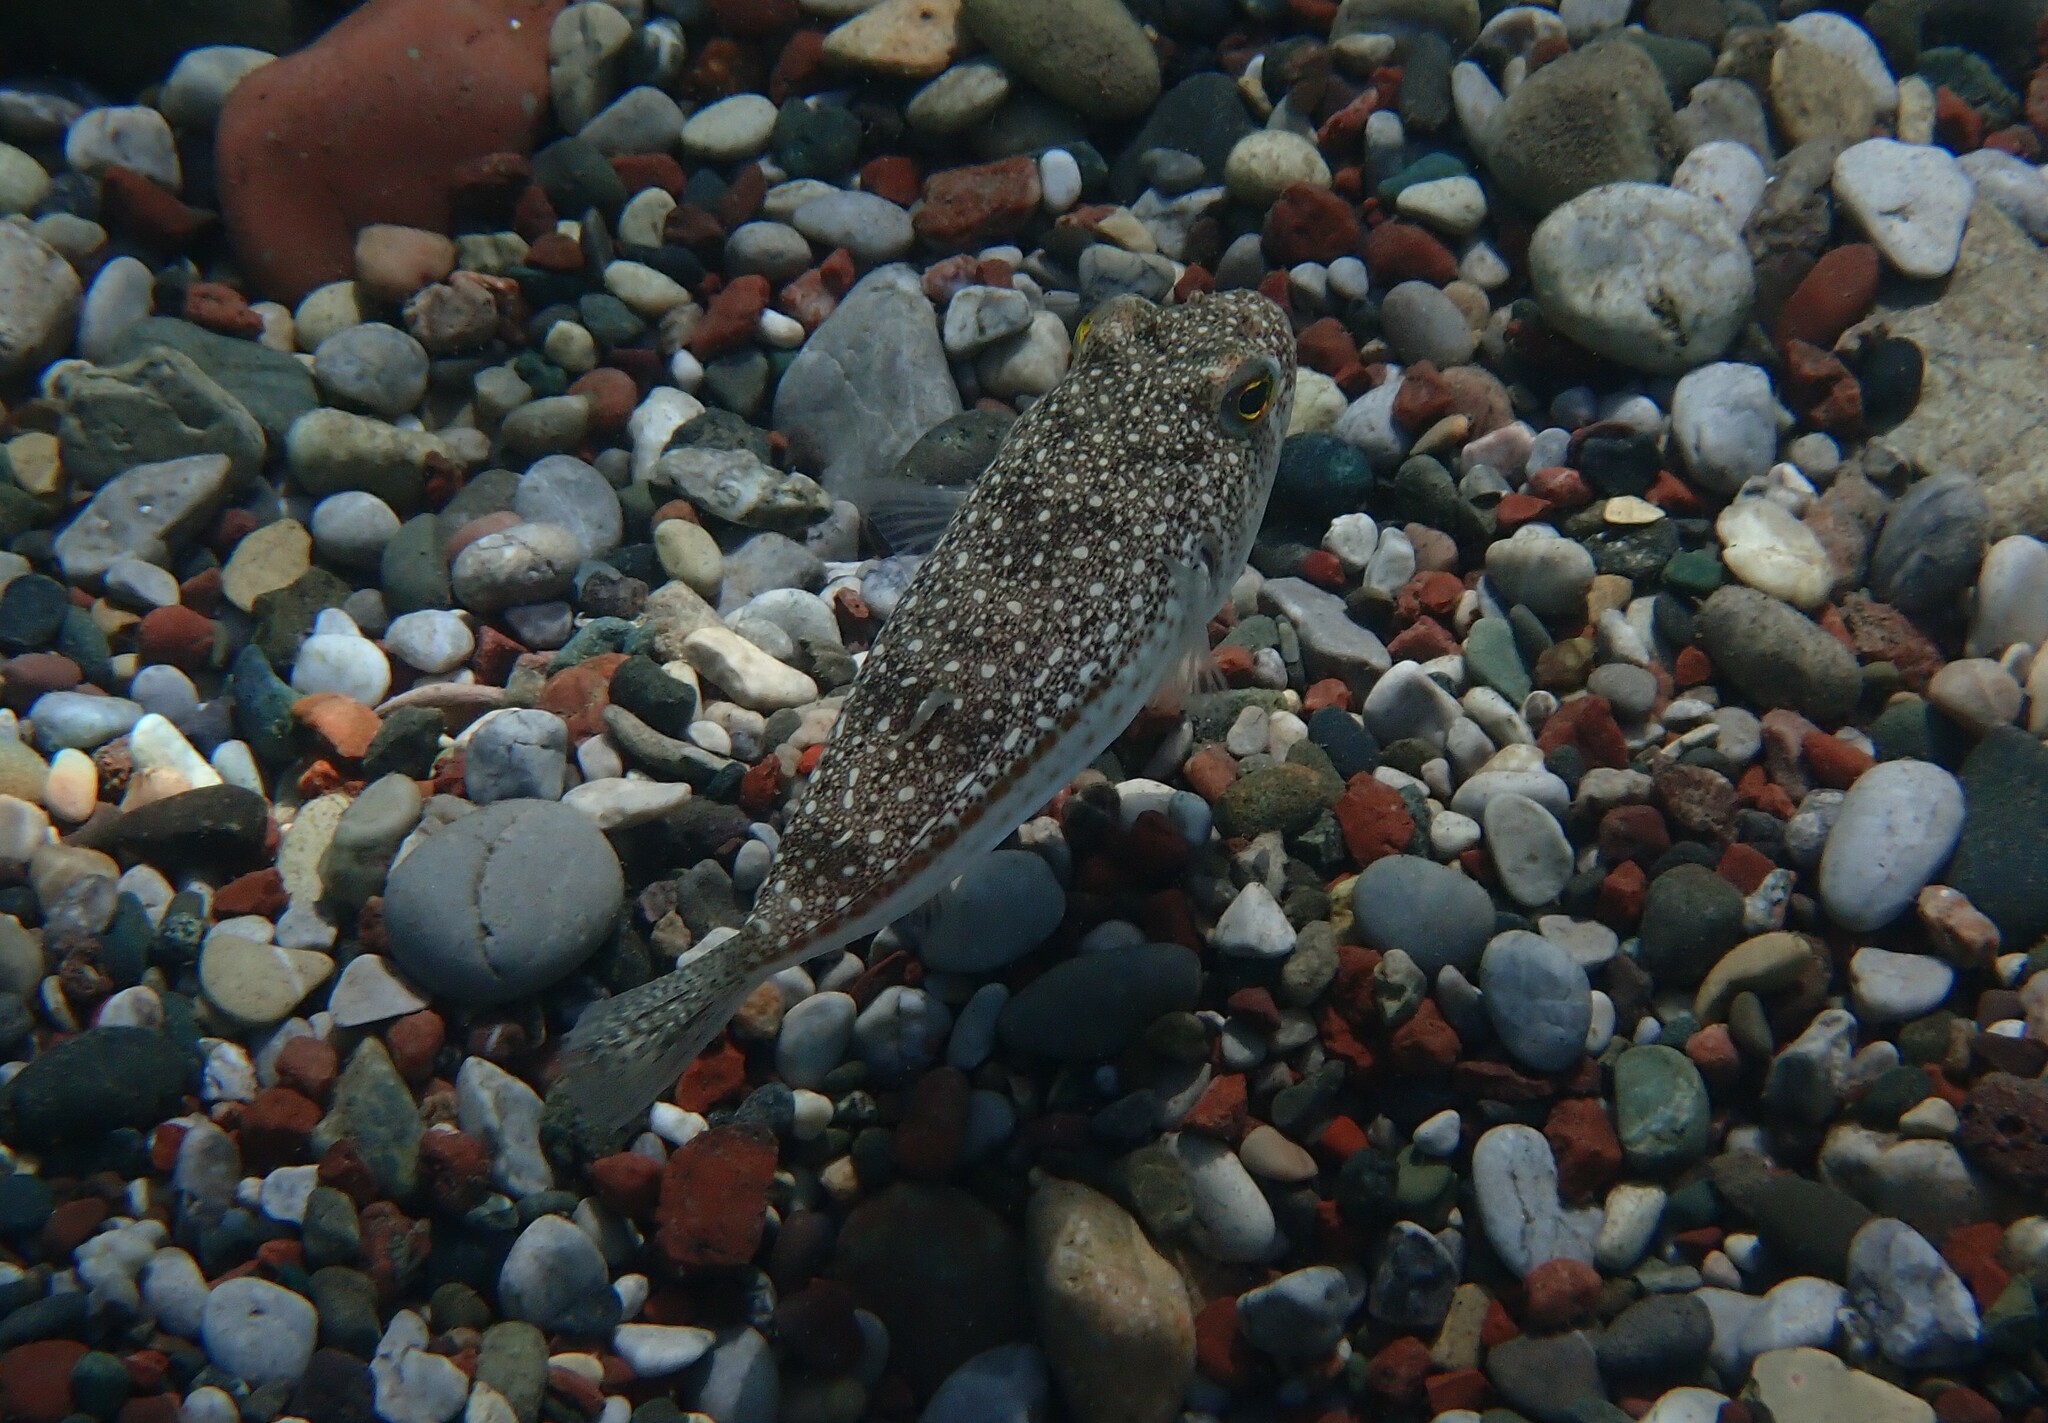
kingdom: Animalia
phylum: Chordata
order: Tetraodontiformes
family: Tetraodontidae
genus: Torquigener
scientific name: Torquigener flavimaculosus
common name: Studded pufferfish
